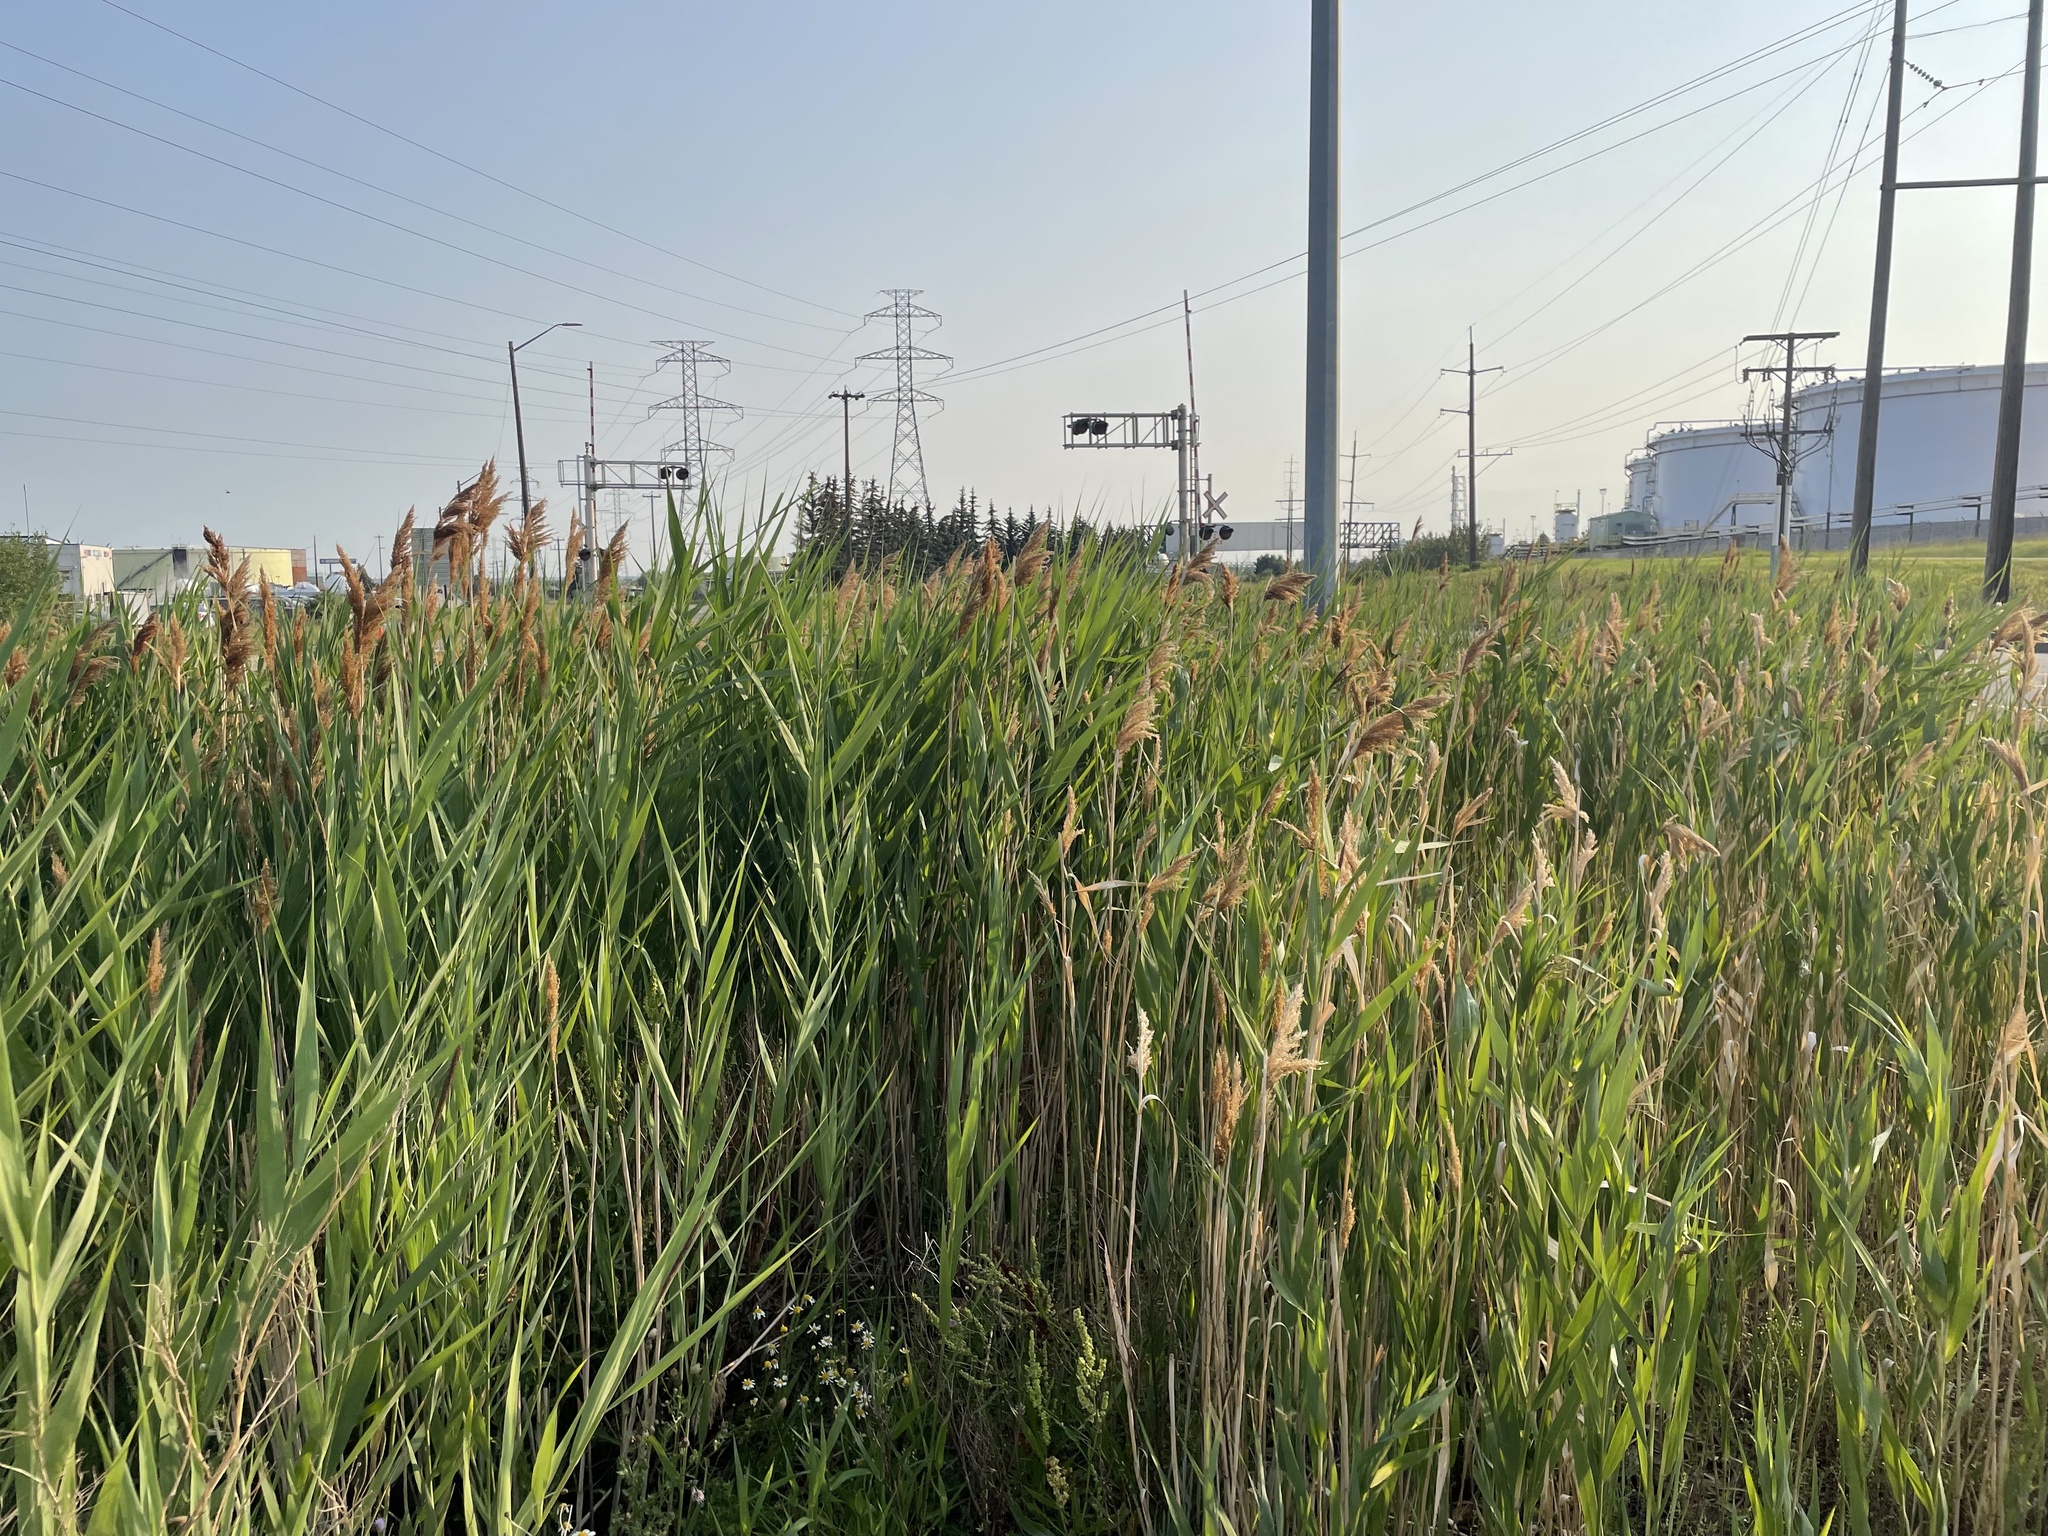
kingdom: Plantae
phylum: Tracheophyta
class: Liliopsida
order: Poales
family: Poaceae
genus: Phragmites
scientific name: Phragmites australis
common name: Common reed
